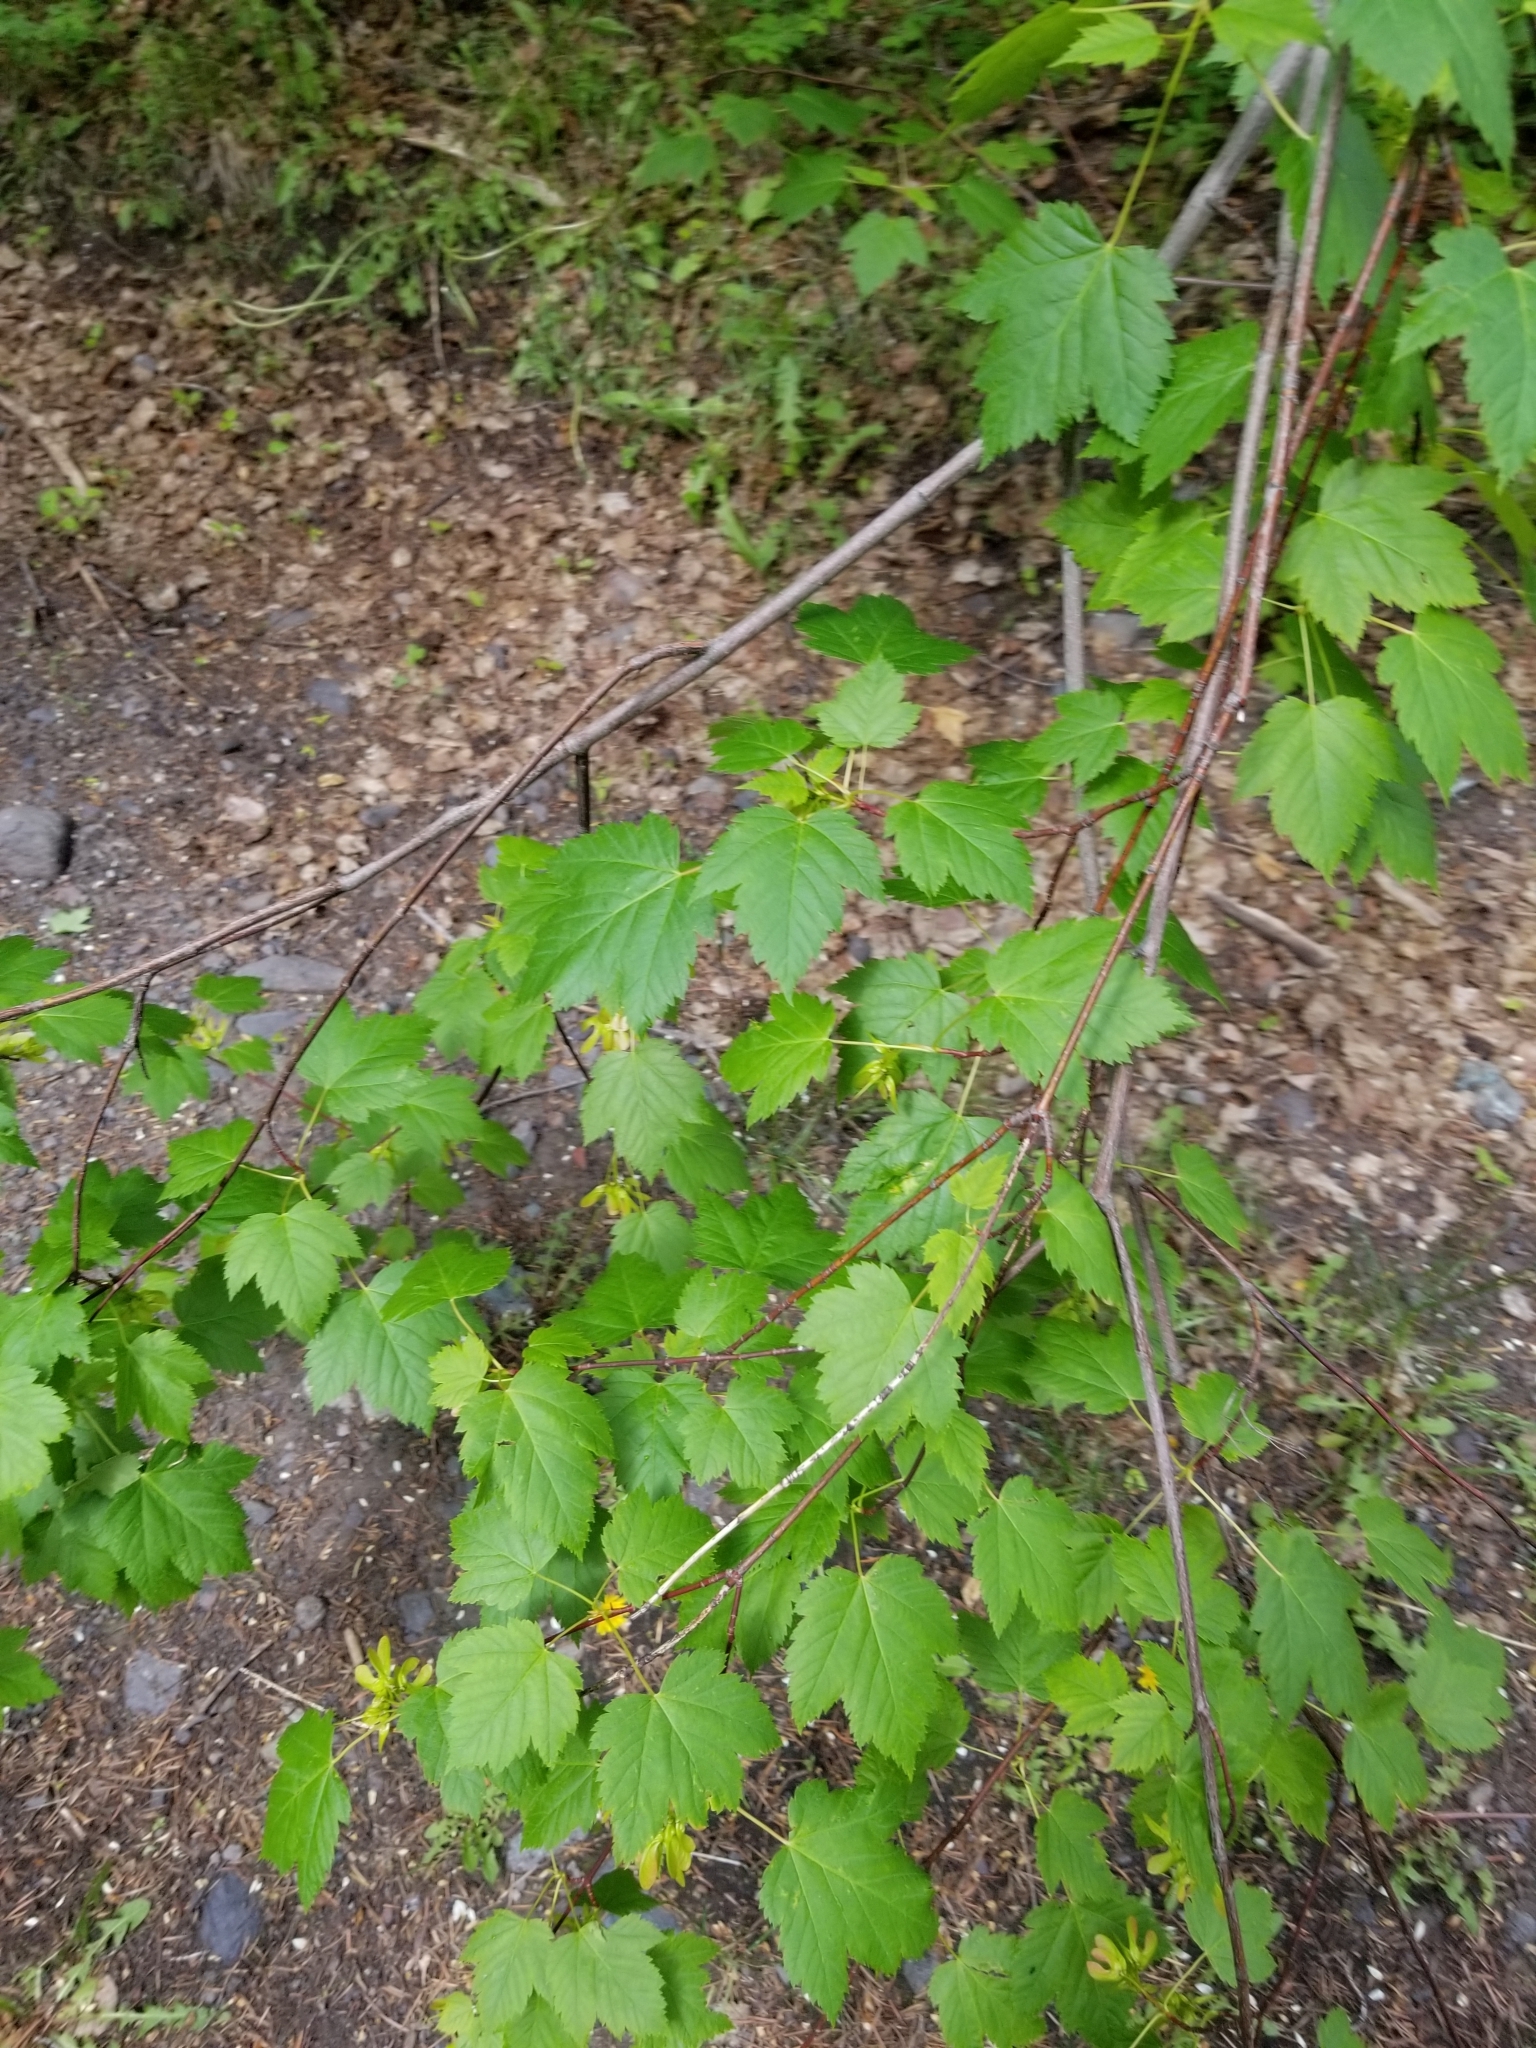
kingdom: Plantae
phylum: Tracheophyta
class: Magnoliopsida
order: Sapindales
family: Sapindaceae
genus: Acer
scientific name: Acer glabrum
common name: Rocky mountain maple
